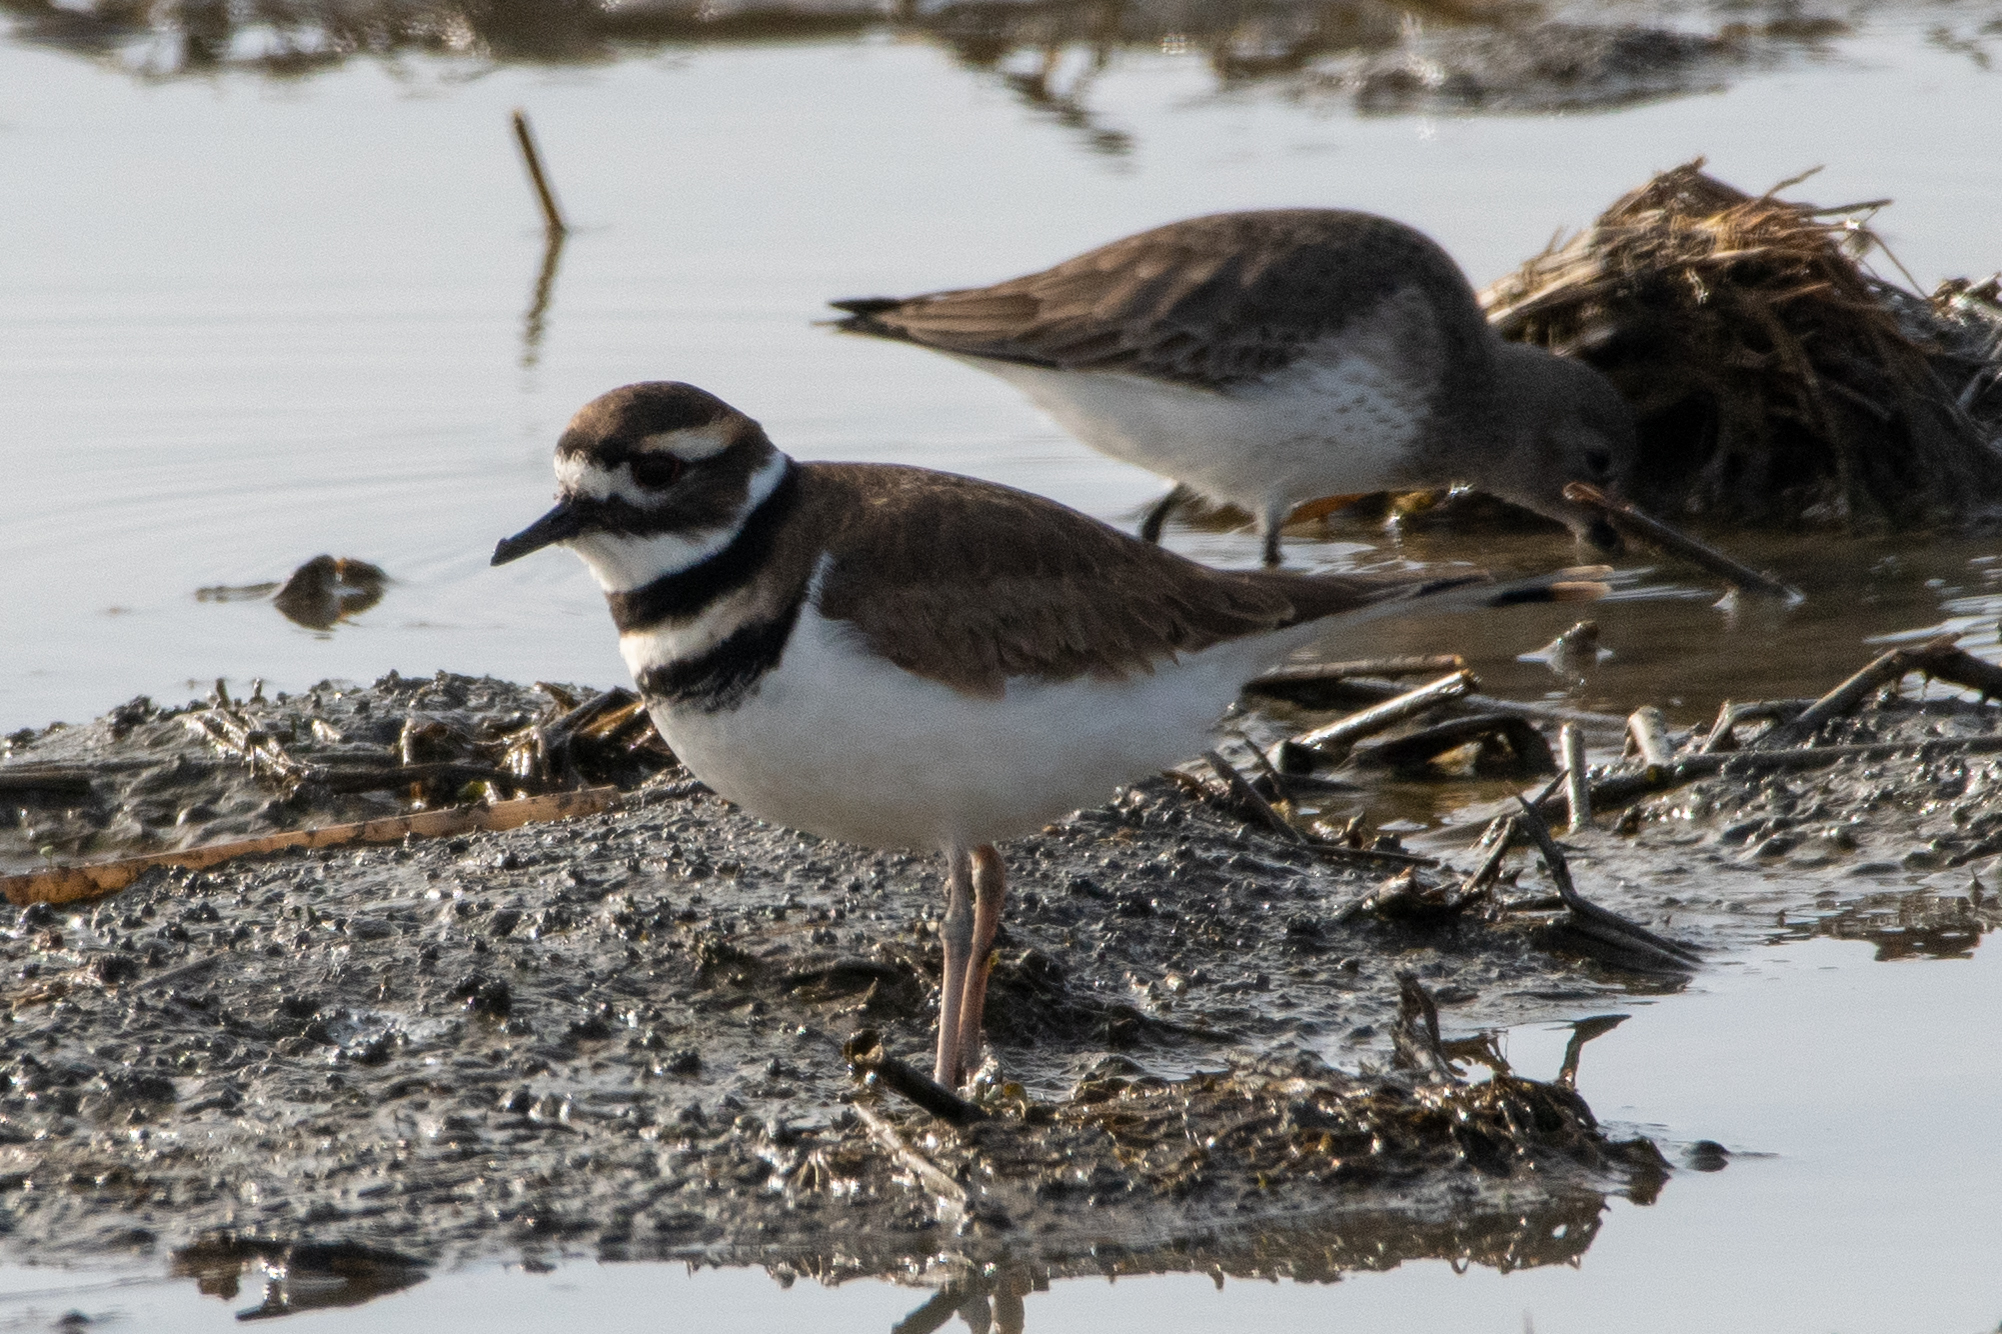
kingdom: Animalia
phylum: Chordata
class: Aves
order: Charadriiformes
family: Charadriidae
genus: Charadrius
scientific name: Charadrius vociferus
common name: Killdeer
